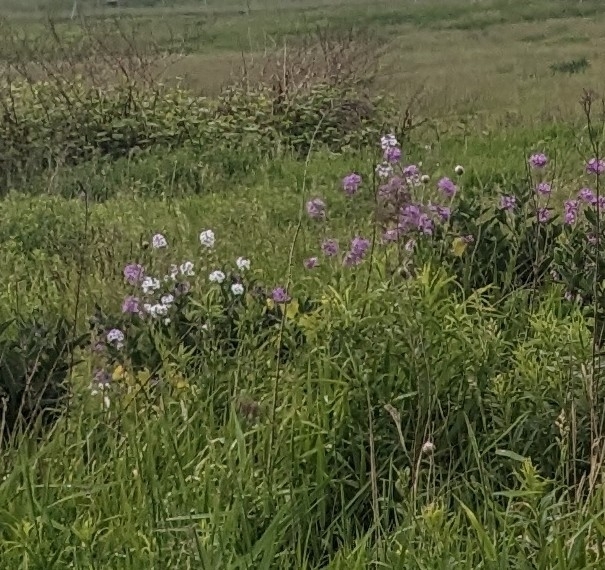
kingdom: Plantae
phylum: Tracheophyta
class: Magnoliopsida
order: Brassicales
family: Brassicaceae
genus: Hesperis
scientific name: Hesperis matronalis
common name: Dame's-violet
